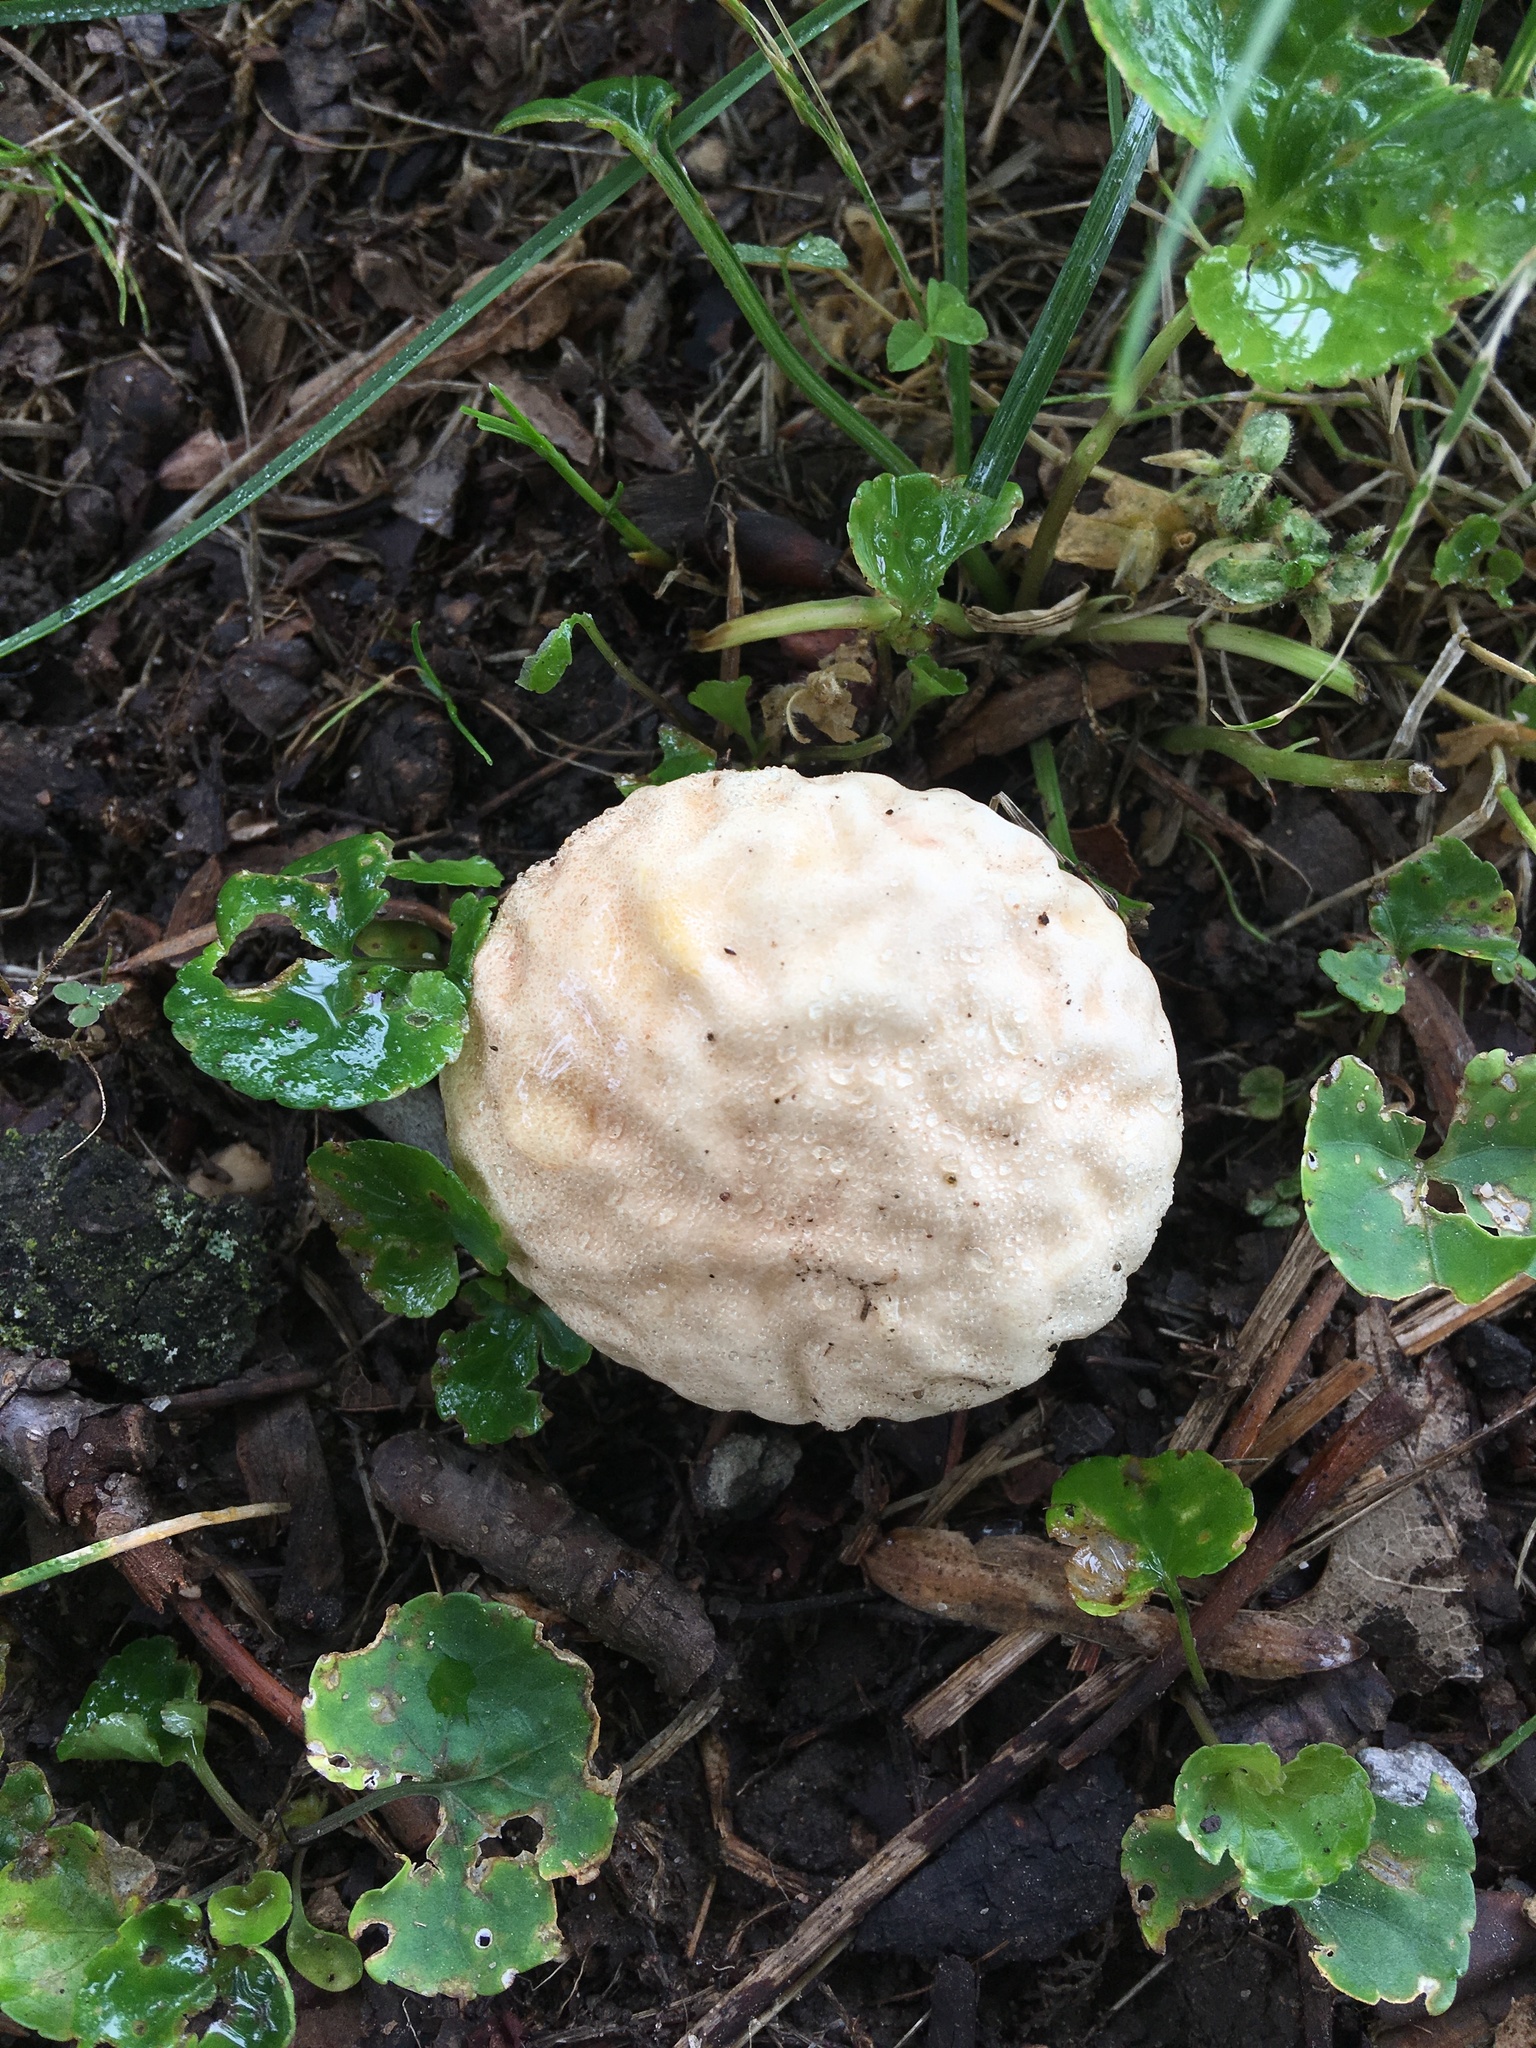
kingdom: Fungi
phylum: Basidiomycota
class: Agaricomycetes
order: Agaricales
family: Lycoperdaceae
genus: Calvatia
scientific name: Calvatia candida
